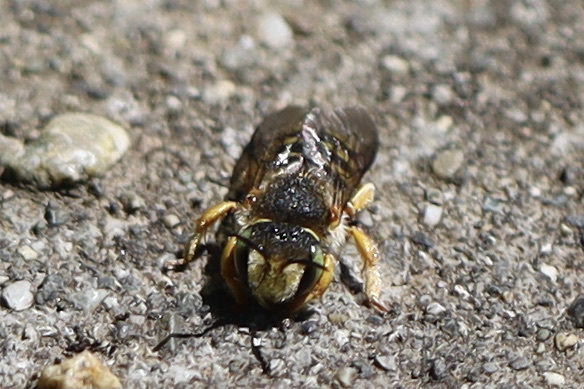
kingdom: Animalia
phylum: Arthropoda
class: Insecta
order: Hymenoptera
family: Megachilidae
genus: Anthidium
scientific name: Anthidium oblongatum
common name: Oblong wool carder bee
